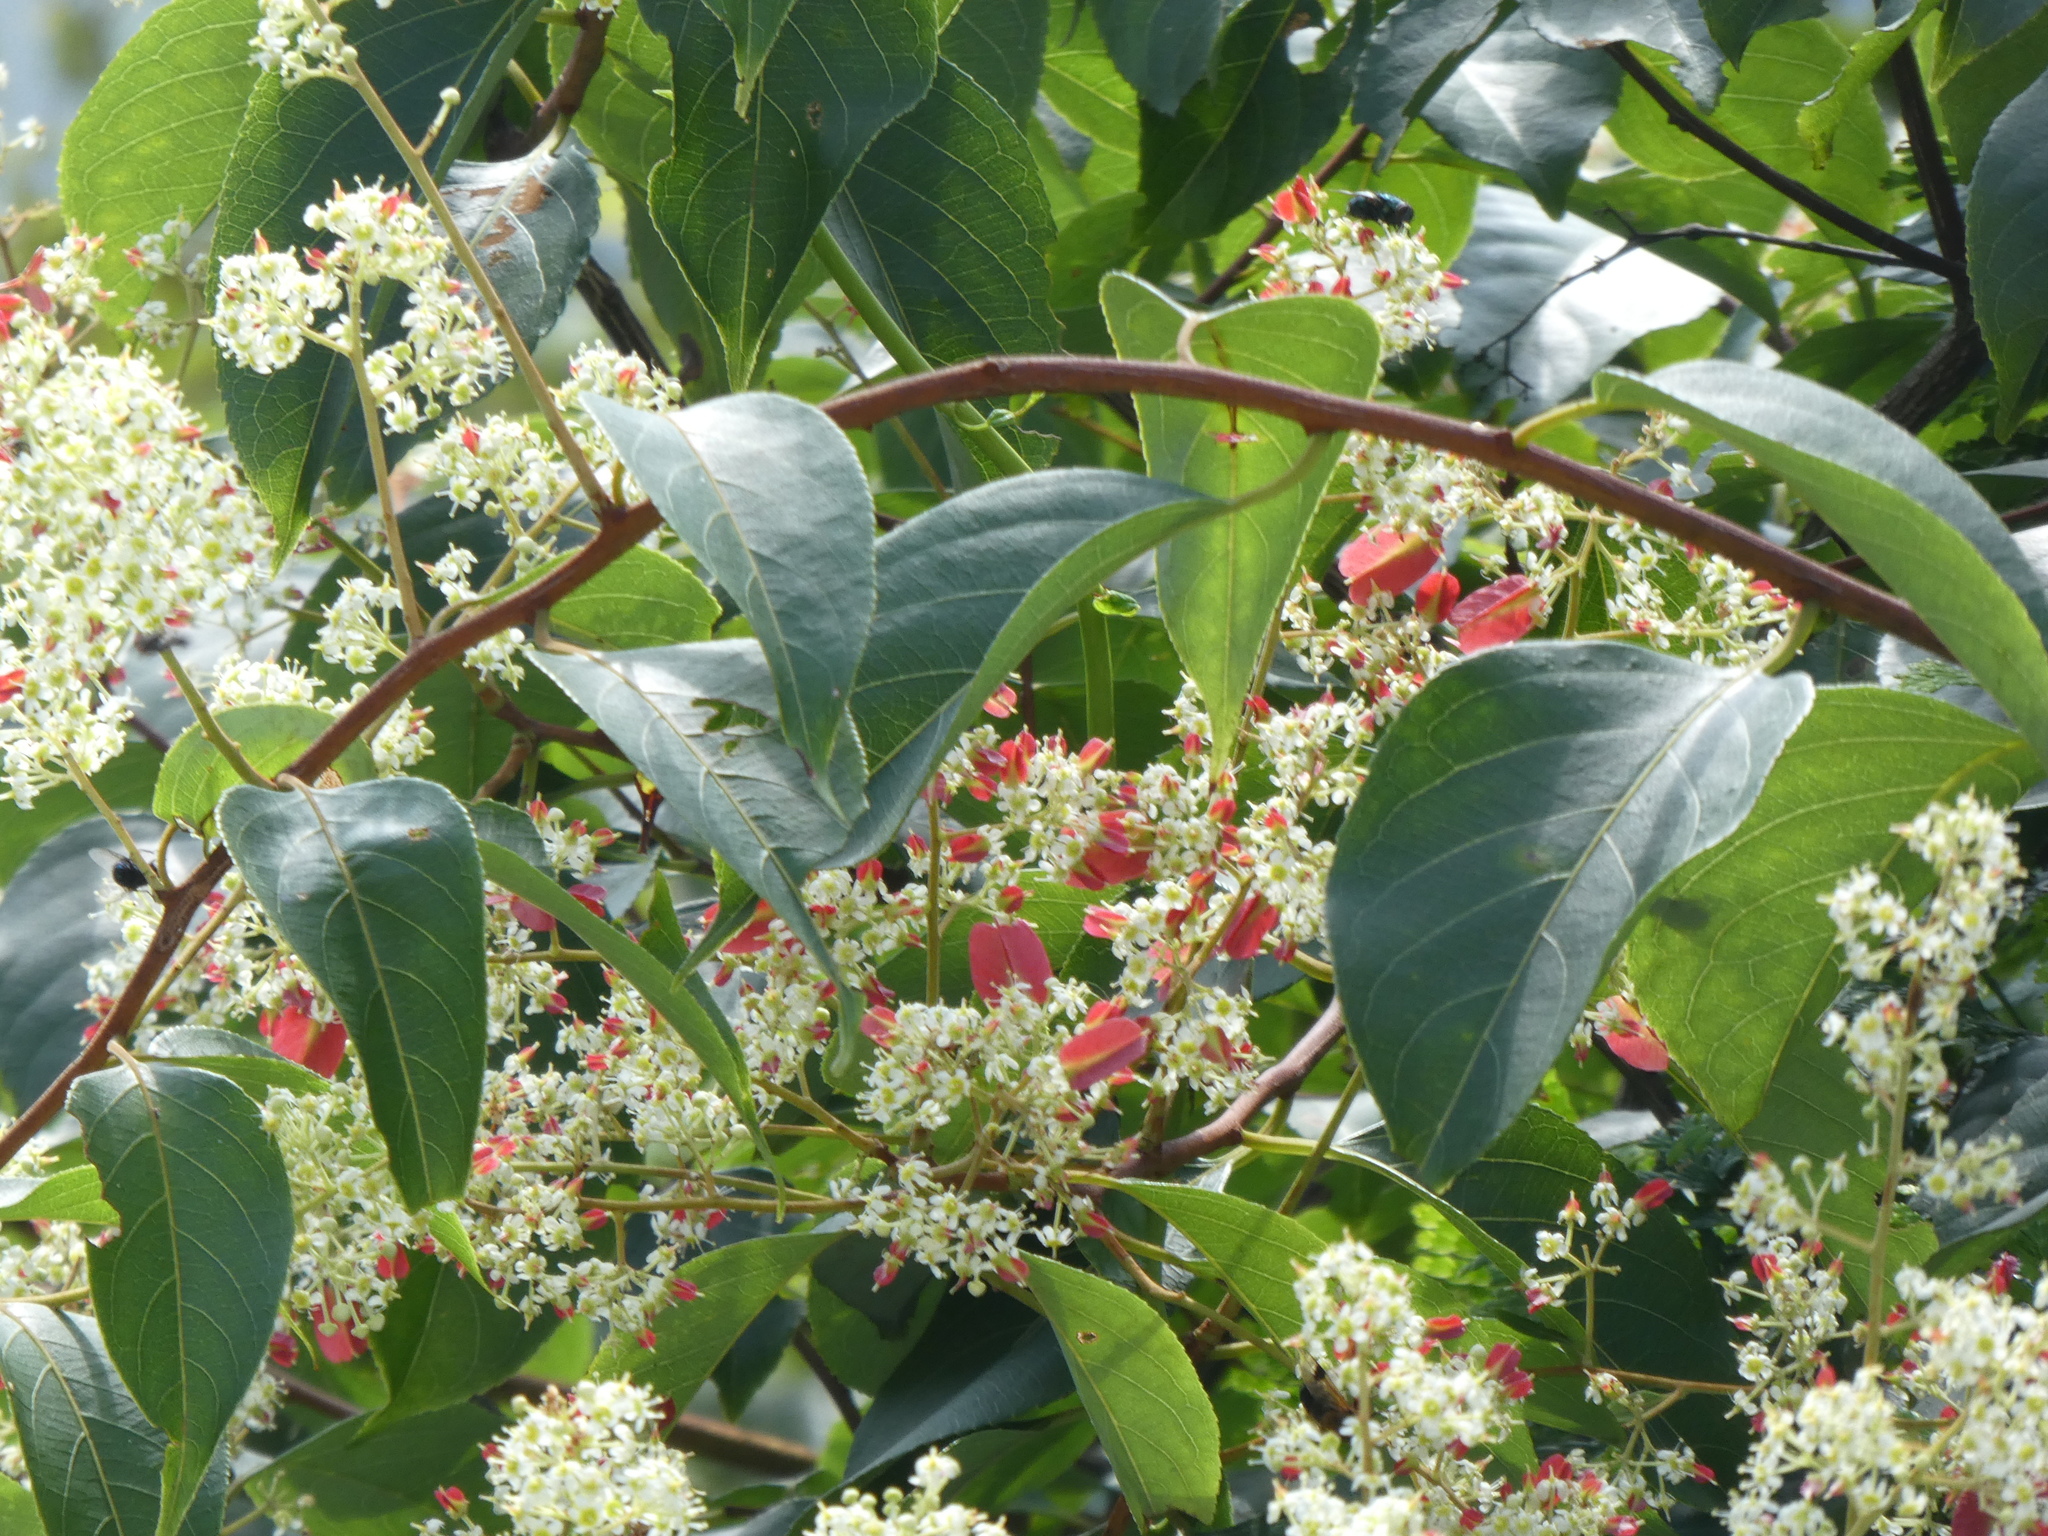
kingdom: Plantae
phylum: Tracheophyta
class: Magnoliopsida
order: Celastrales
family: Celastraceae
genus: Tripterygium
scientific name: Tripterygium wilfordii
